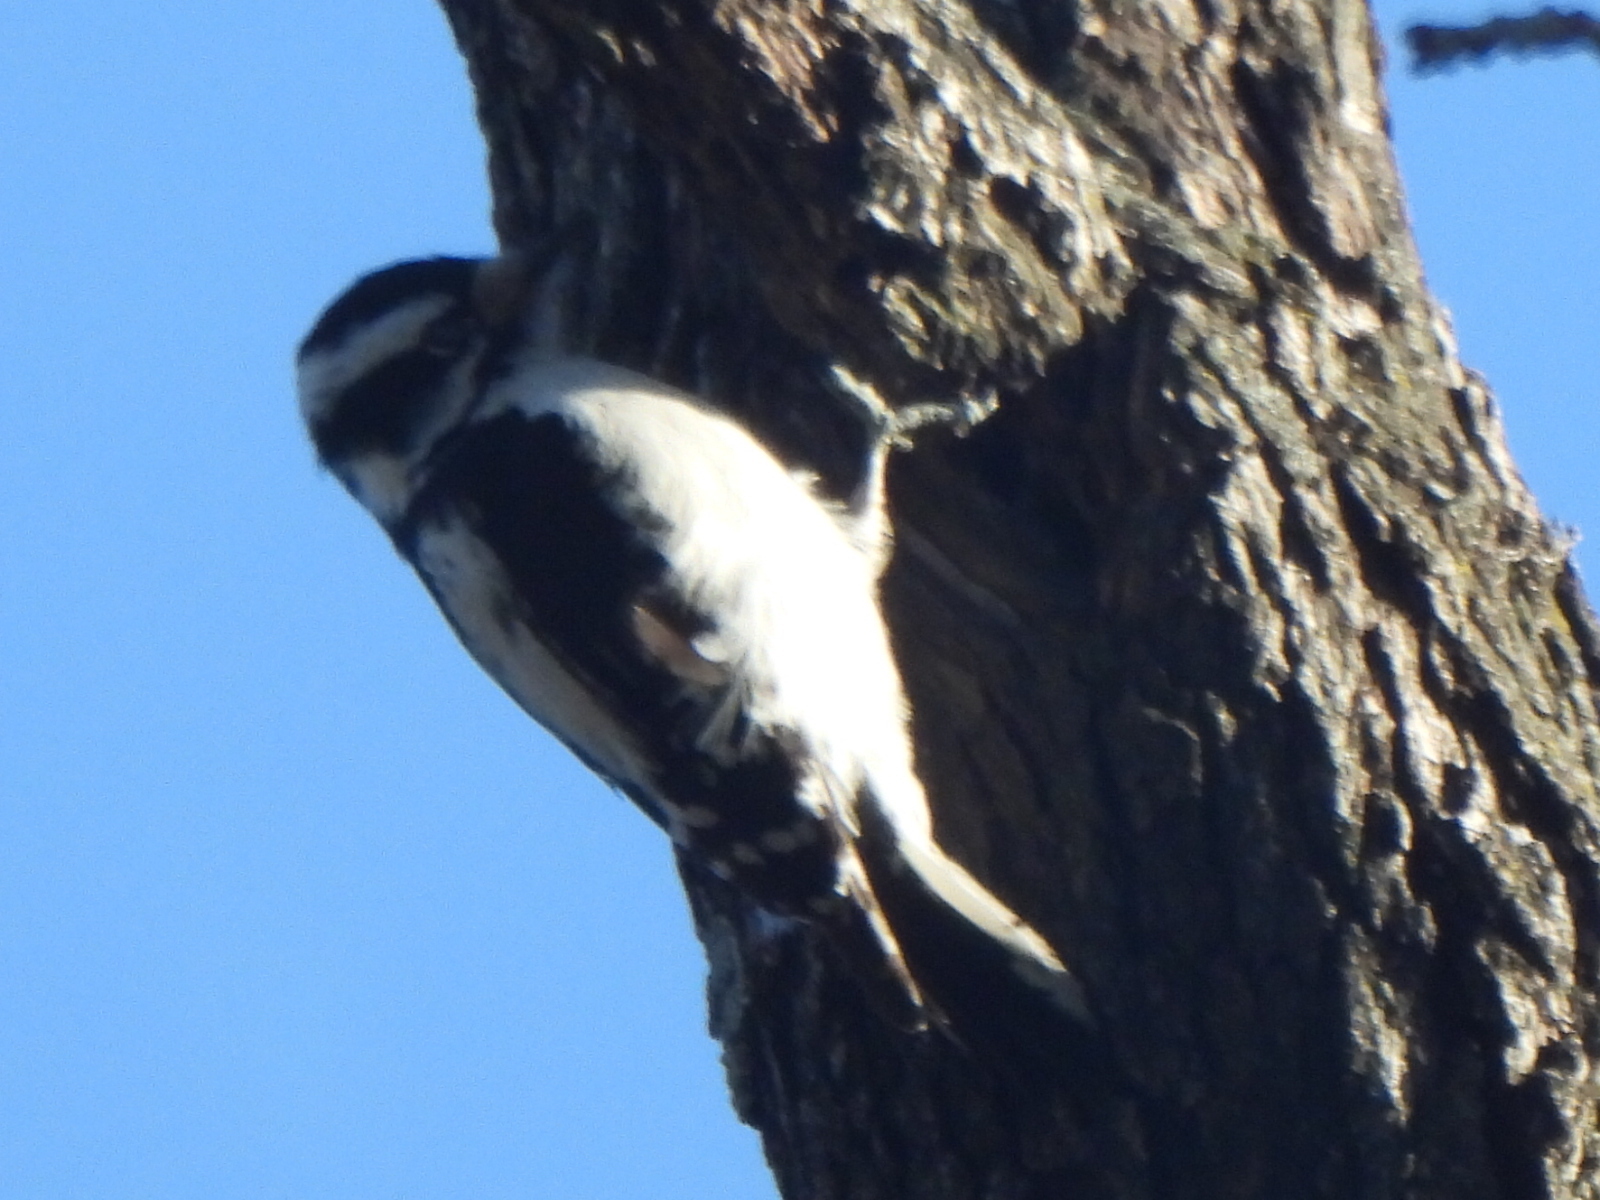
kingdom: Animalia
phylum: Chordata
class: Aves
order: Piciformes
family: Picidae
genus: Dryobates
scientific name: Dryobates pubescens
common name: Downy woodpecker
